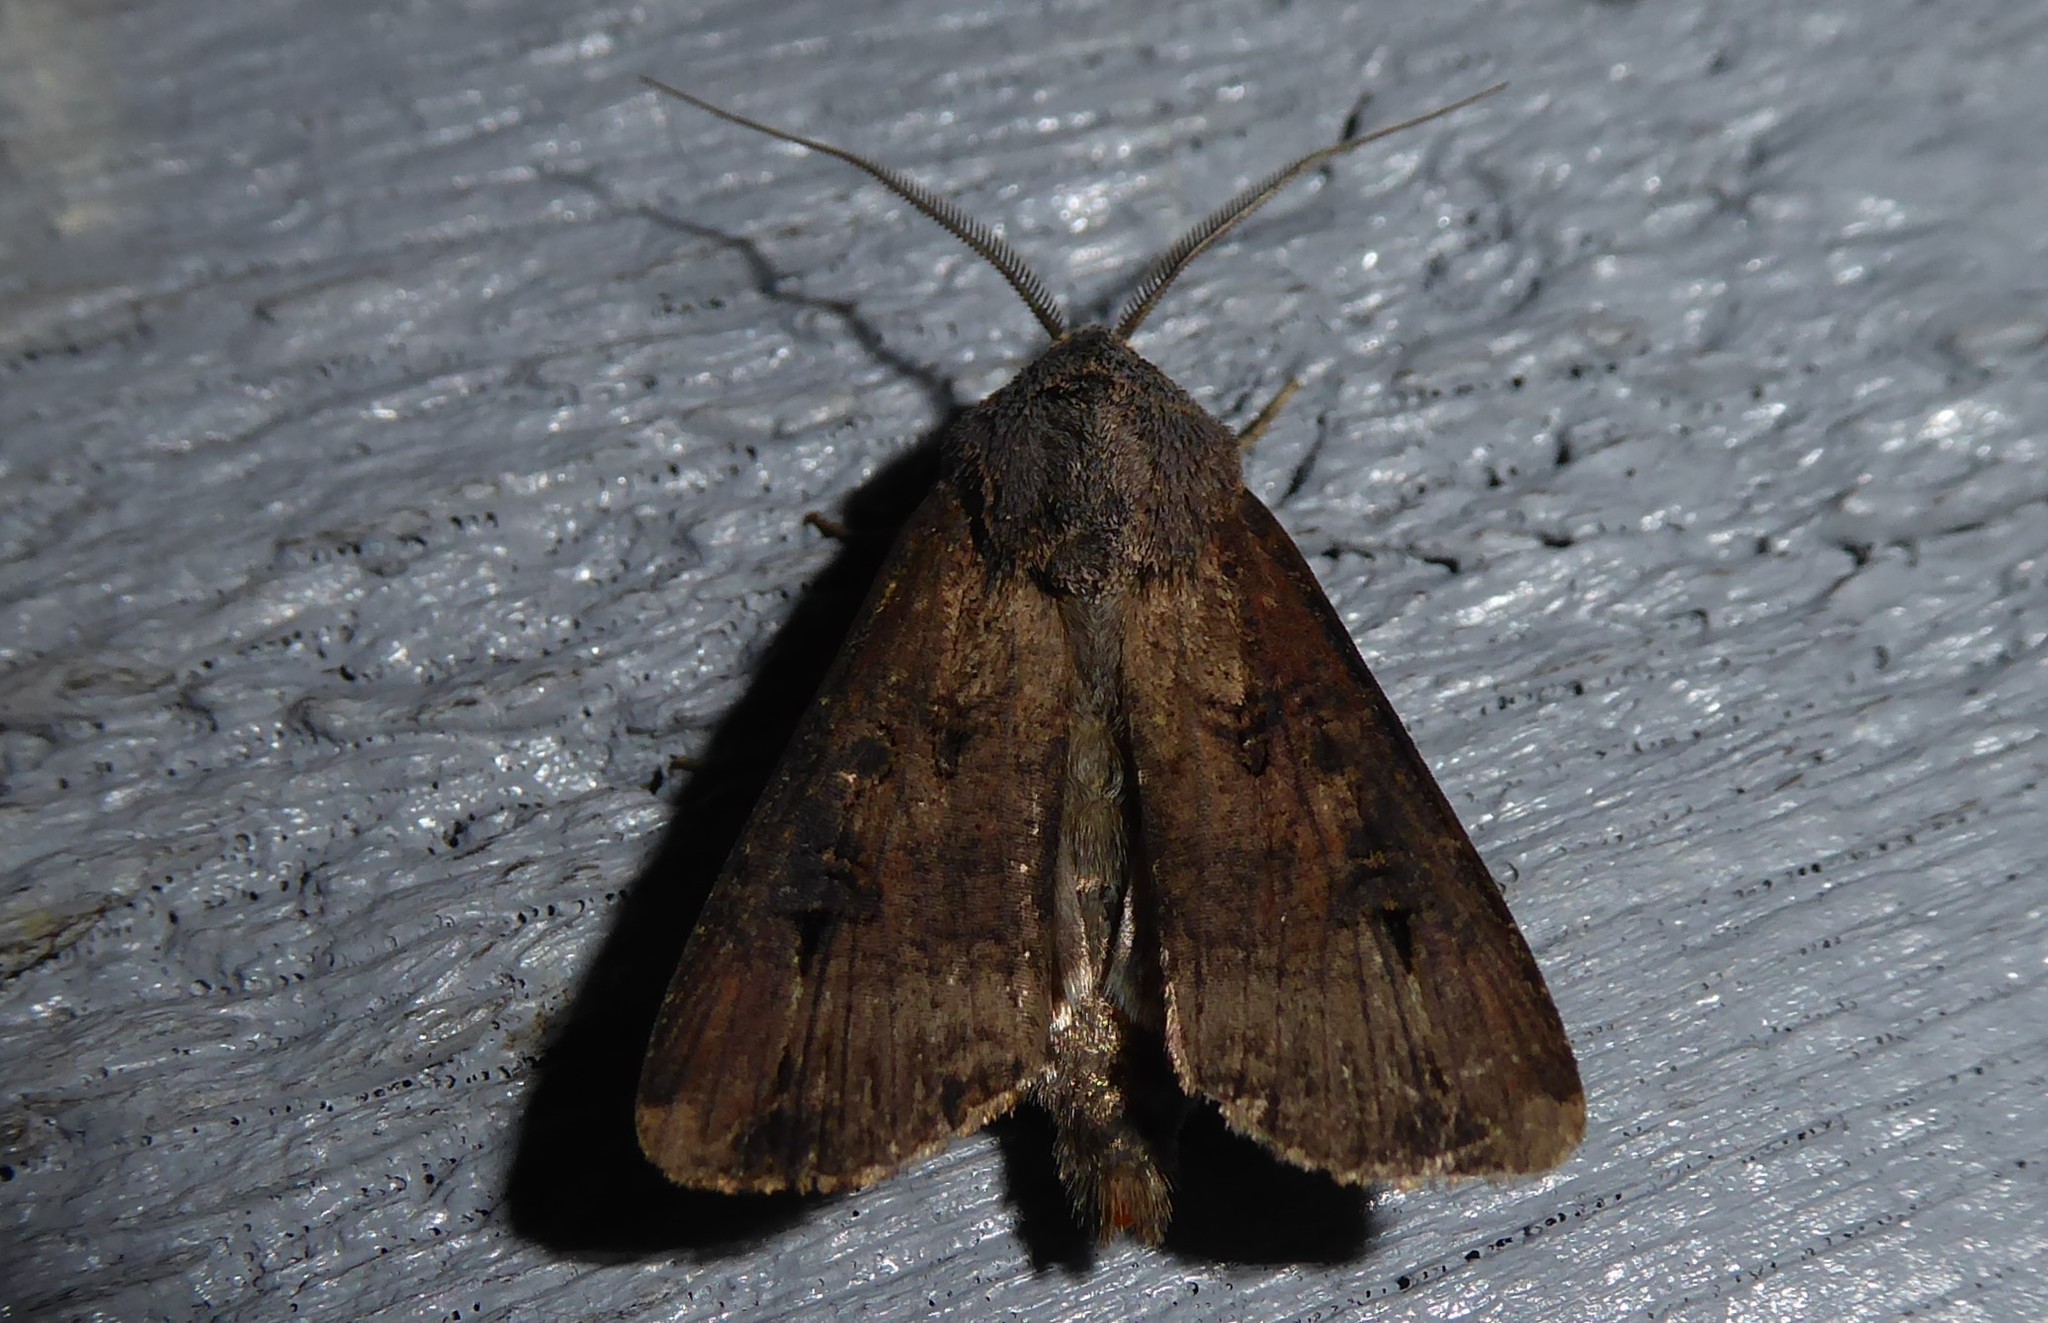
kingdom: Animalia
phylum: Arthropoda
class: Insecta
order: Lepidoptera
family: Noctuidae
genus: Agrotis
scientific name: Agrotis ipsilon
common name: Dark sword-grass
